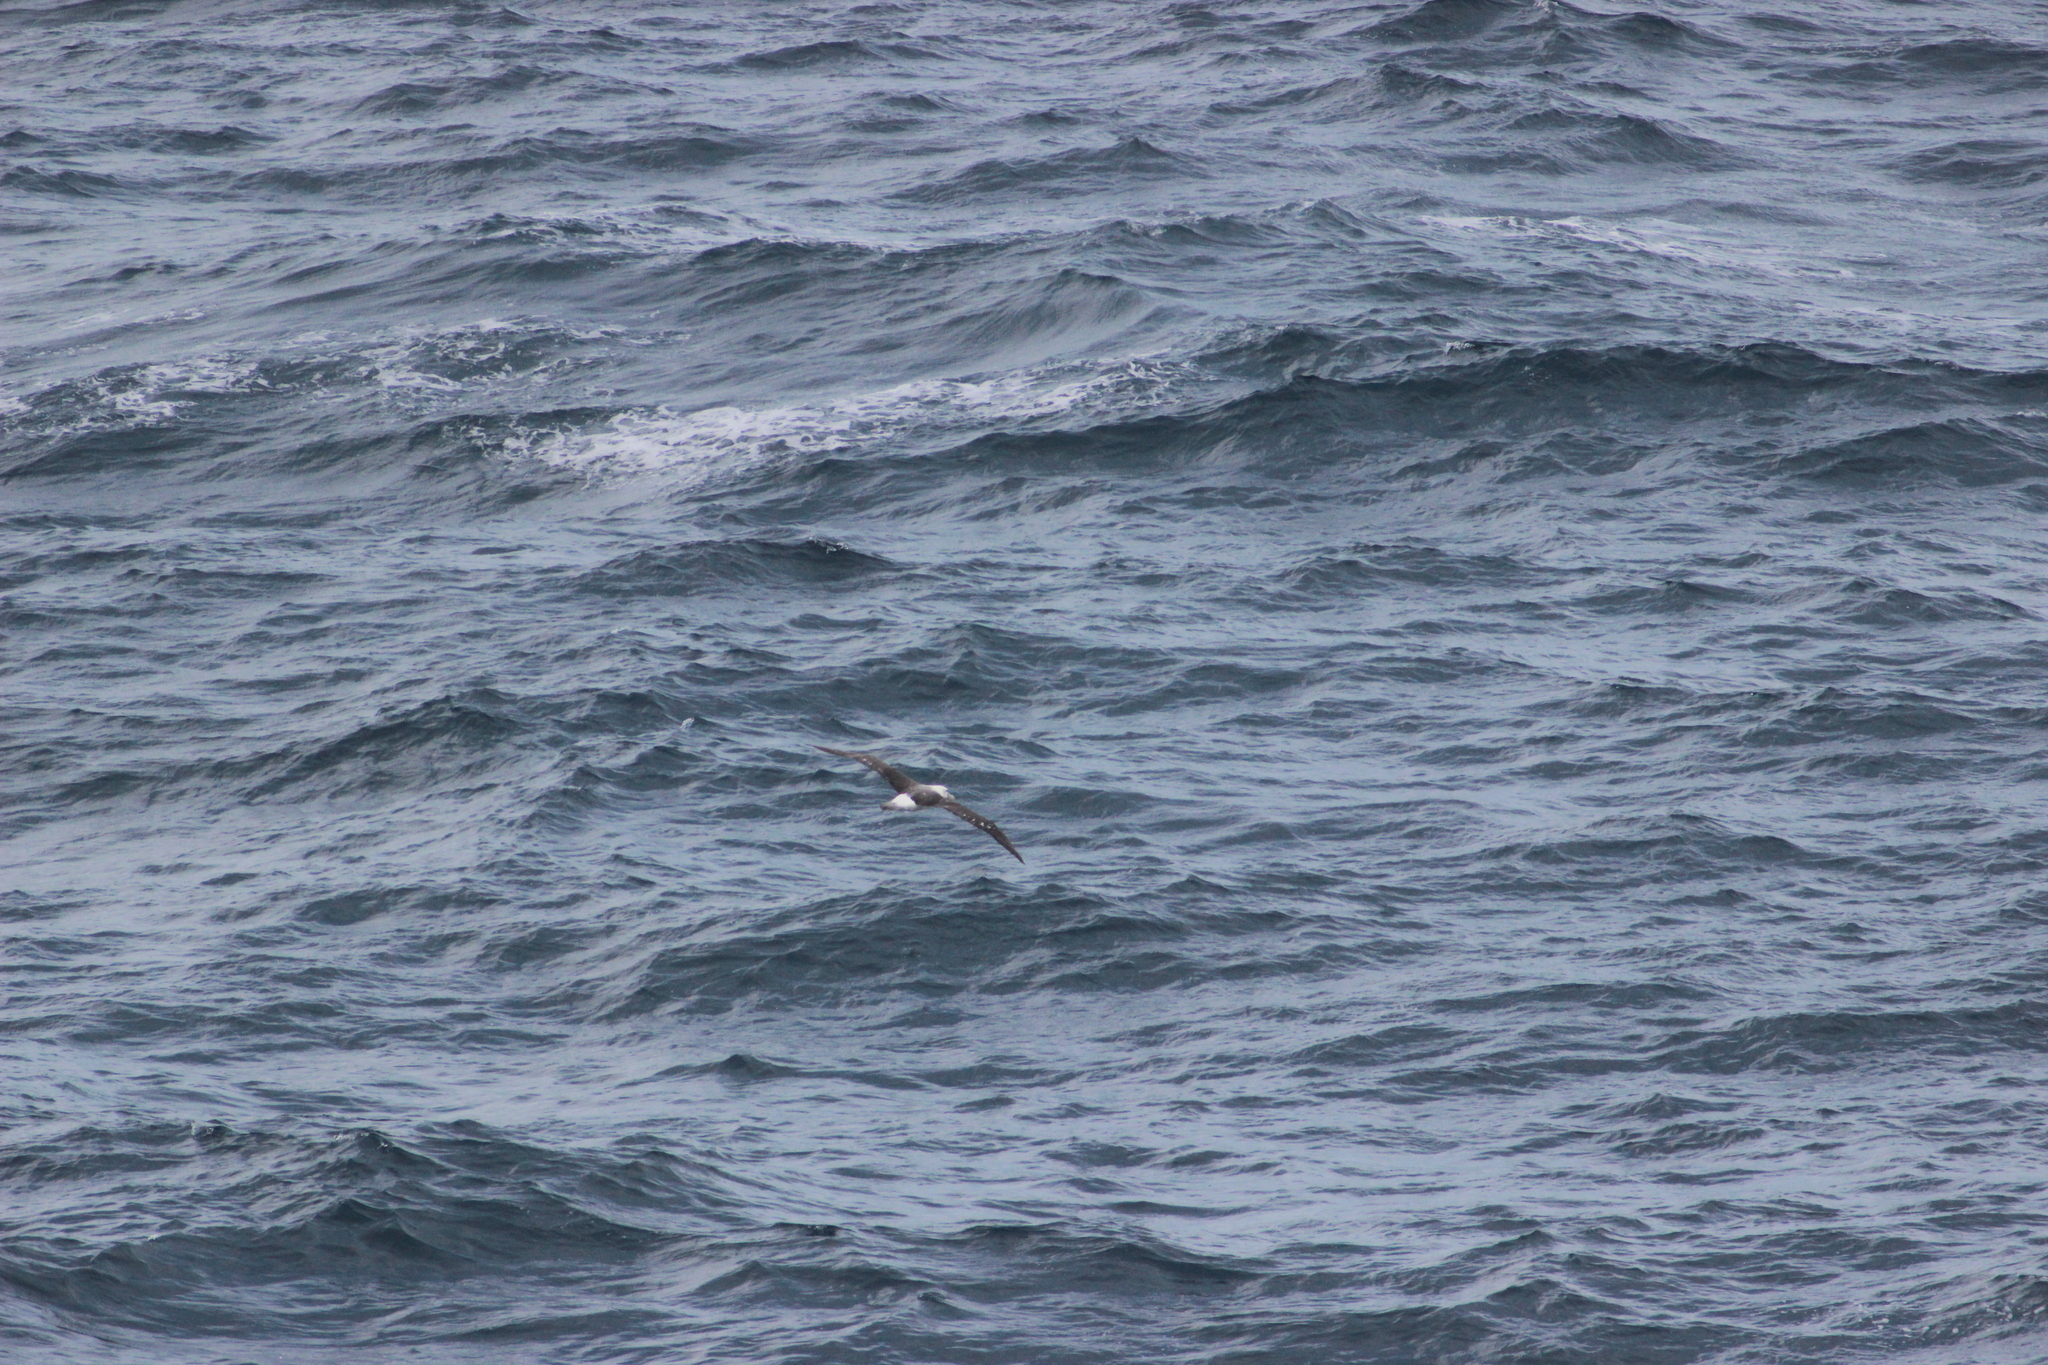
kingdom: Animalia
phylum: Chordata
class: Aves
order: Procellariiformes
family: Diomedeidae
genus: Thalassarche
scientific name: Thalassarche cauta
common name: Shy albatross
